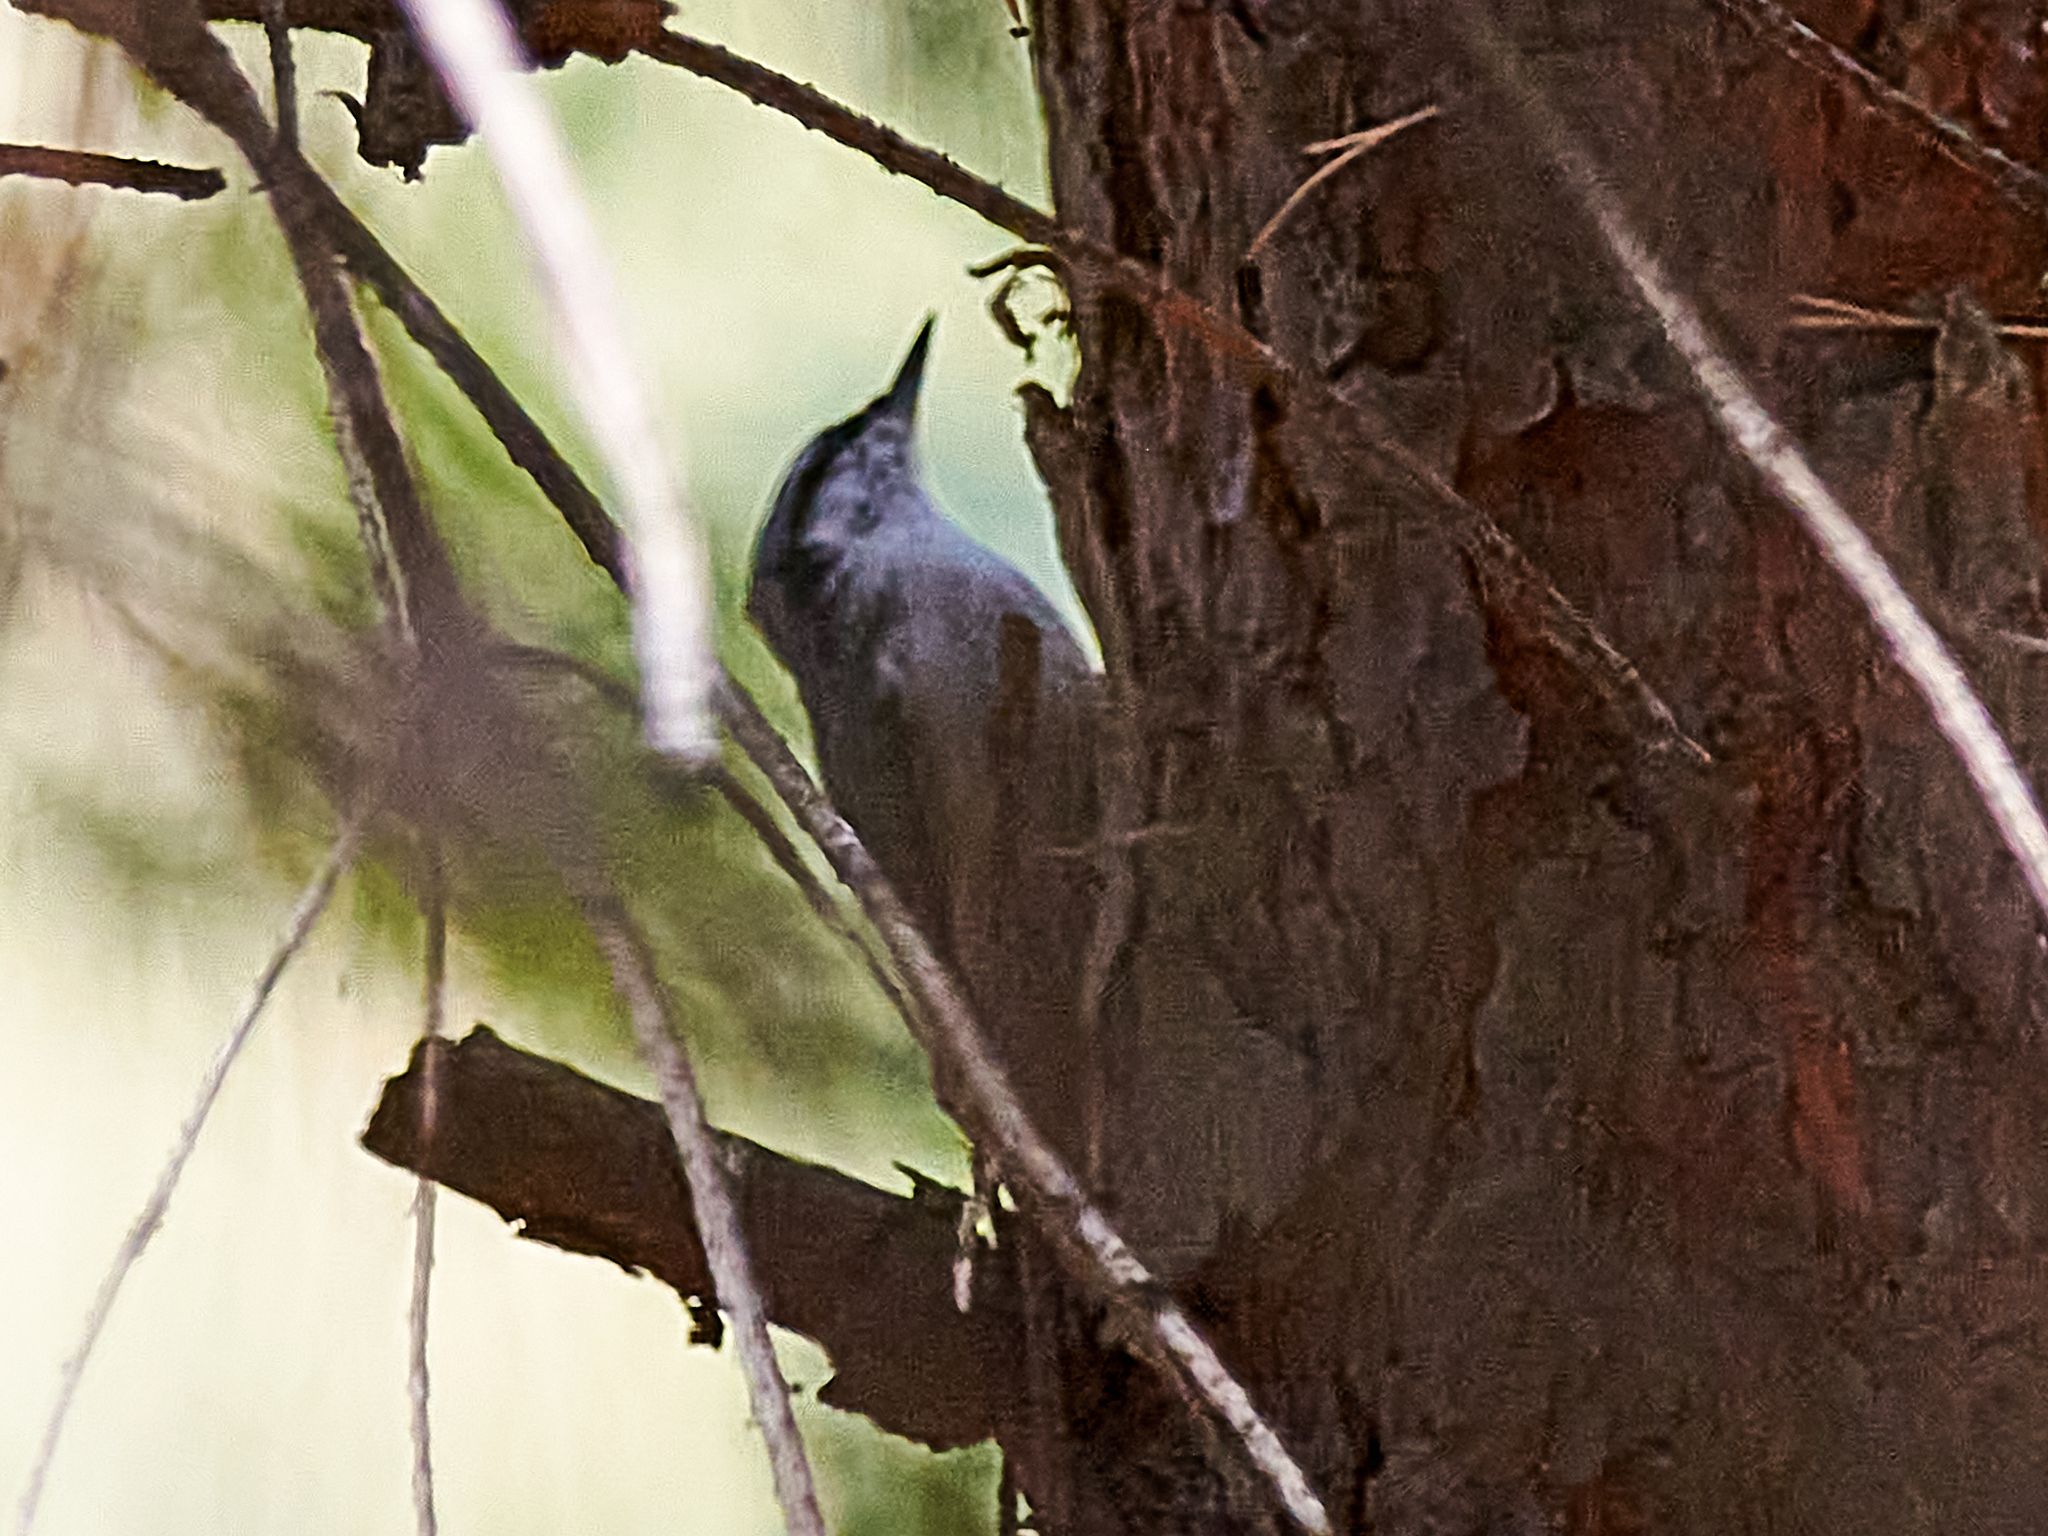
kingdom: Animalia
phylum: Chordata
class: Aves
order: Passeriformes
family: Sittidae
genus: Sitta
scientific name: Sitta europaea
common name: Eurasian nuthatch
